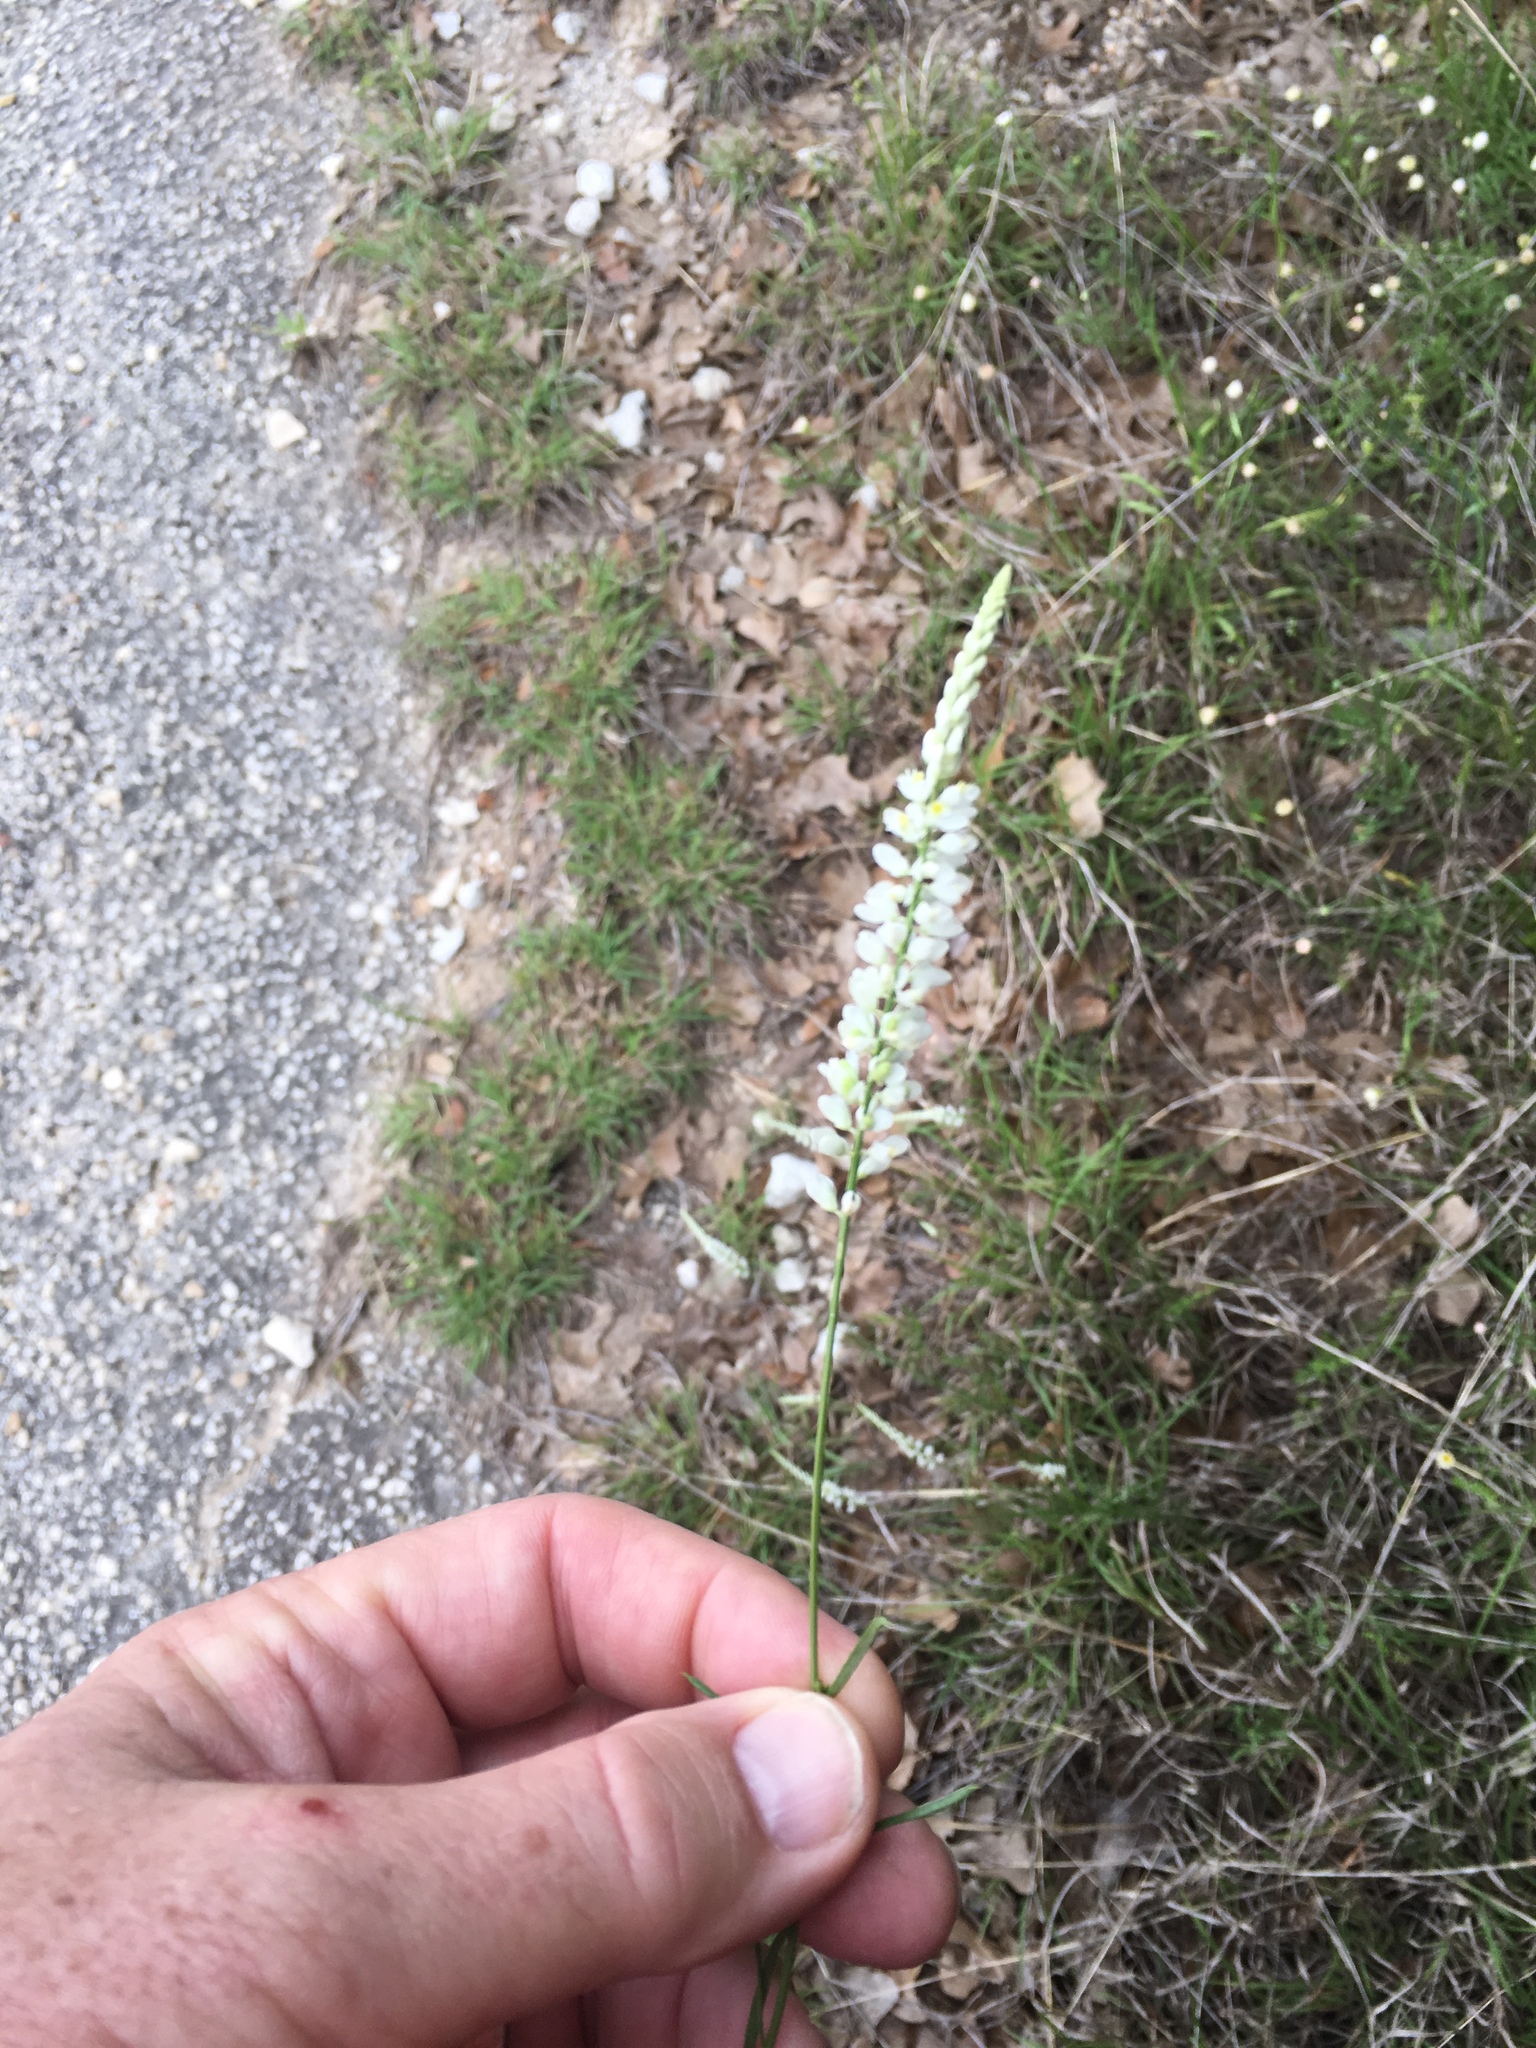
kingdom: Plantae
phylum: Tracheophyta
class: Magnoliopsida
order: Fabales
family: Polygalaceae
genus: Polygala
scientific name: Polygala alba
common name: White milkwort
